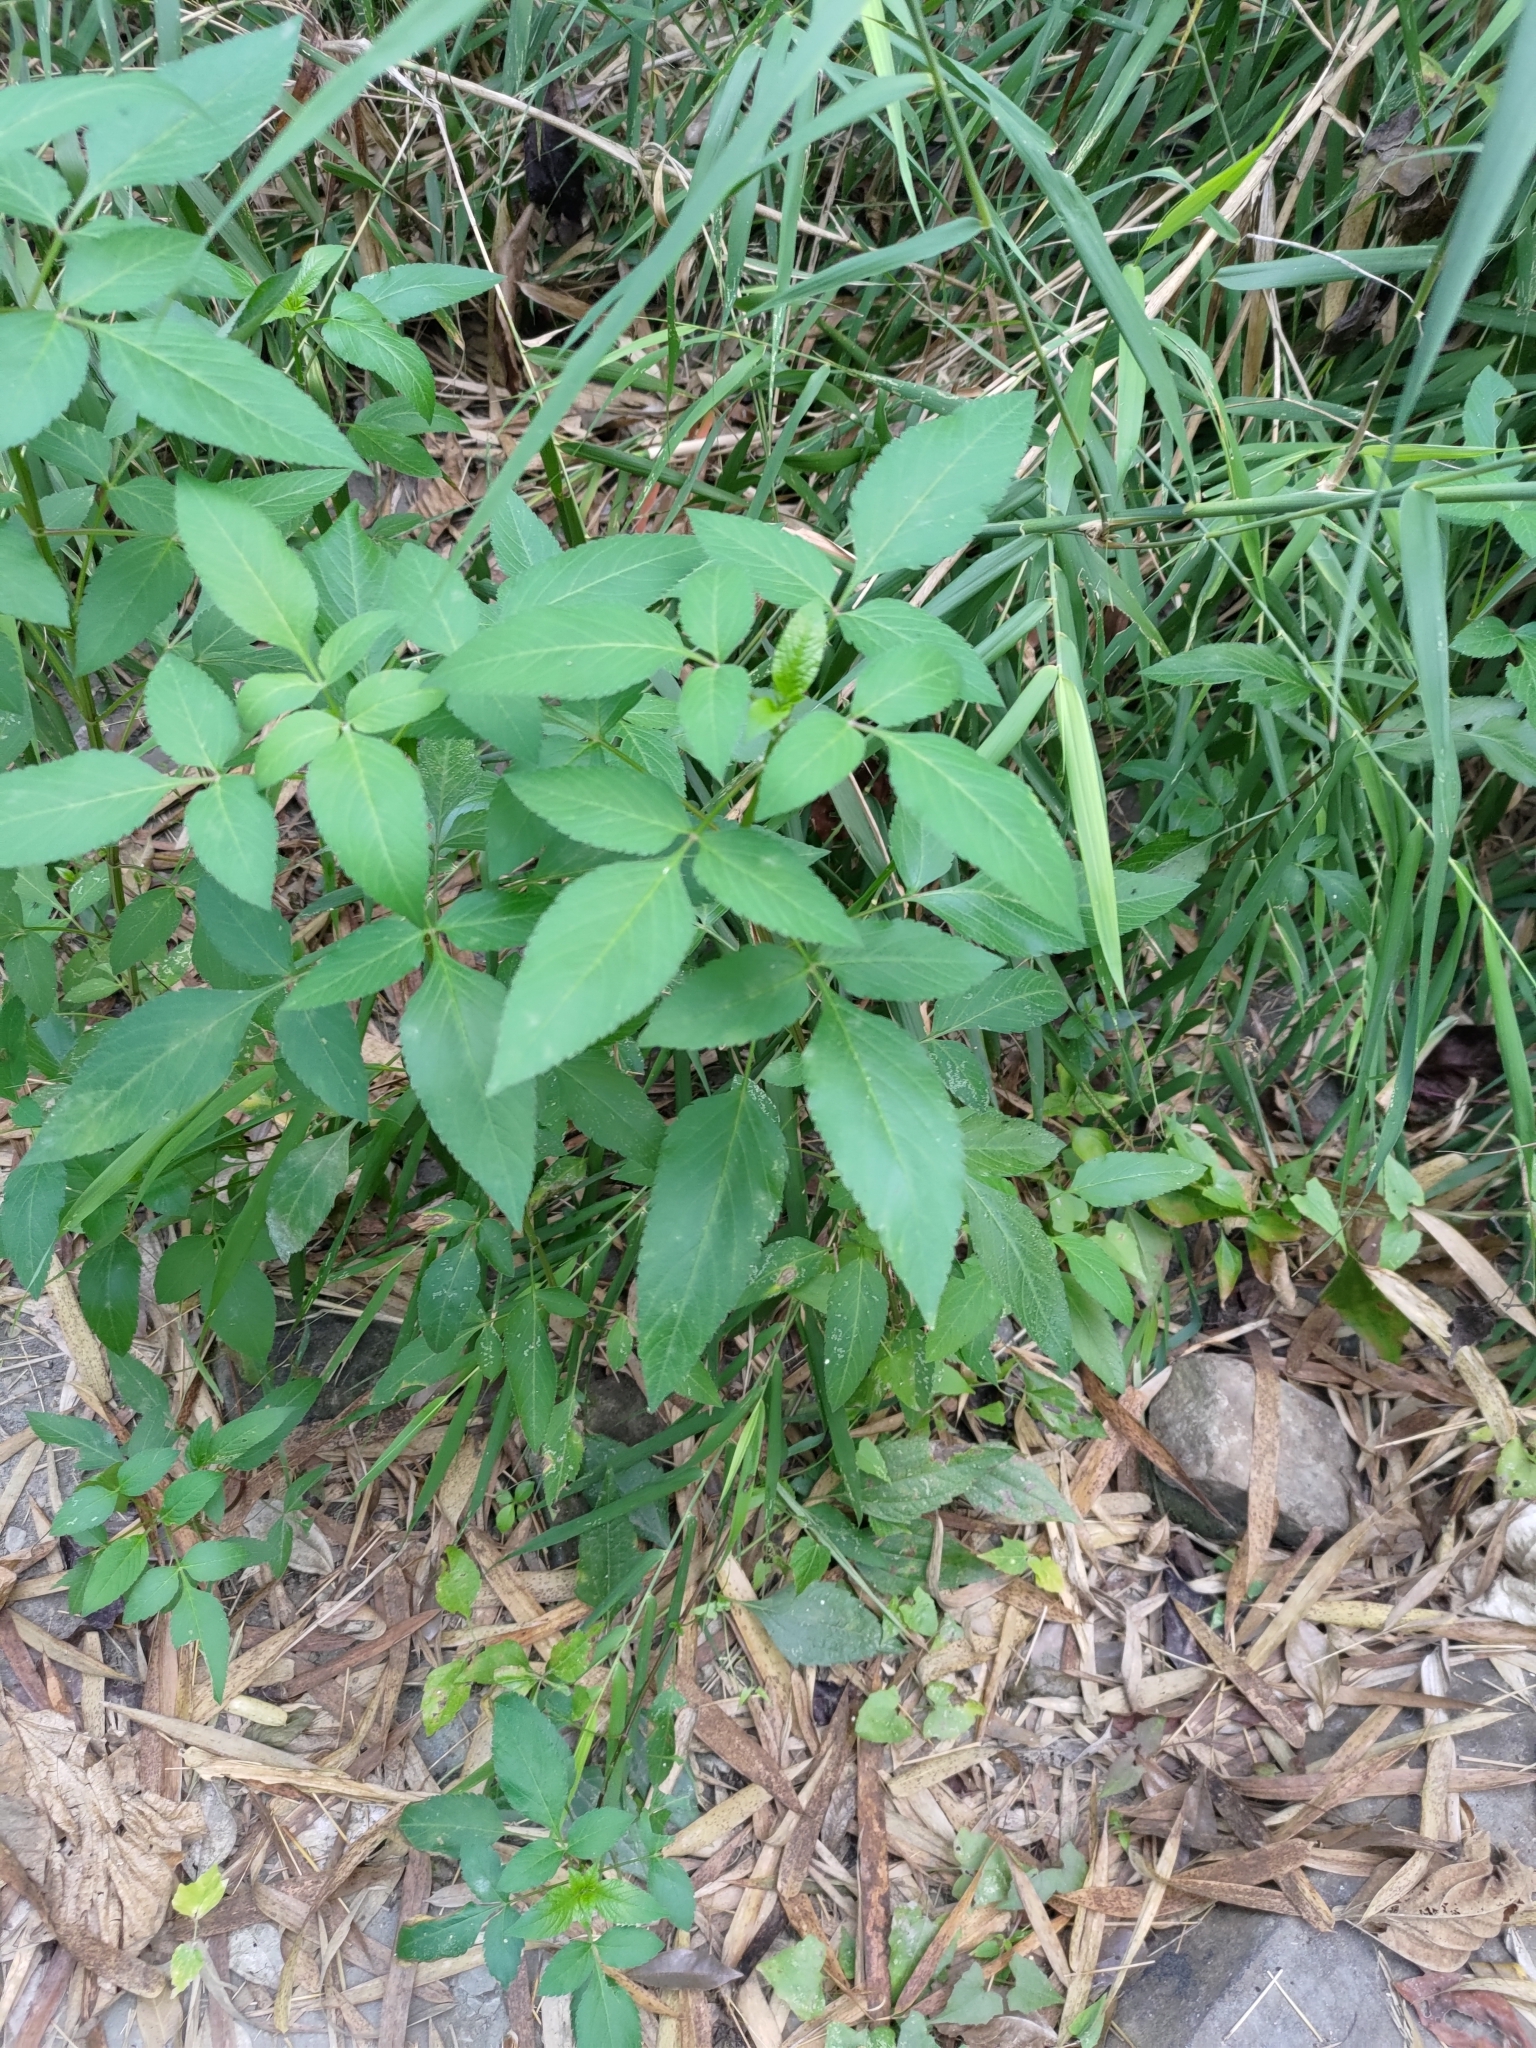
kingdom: Plantae
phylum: Tracheophyta
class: Magnoliopsida
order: Asterales
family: Asteraceae
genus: Bidens
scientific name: Bidens alba
